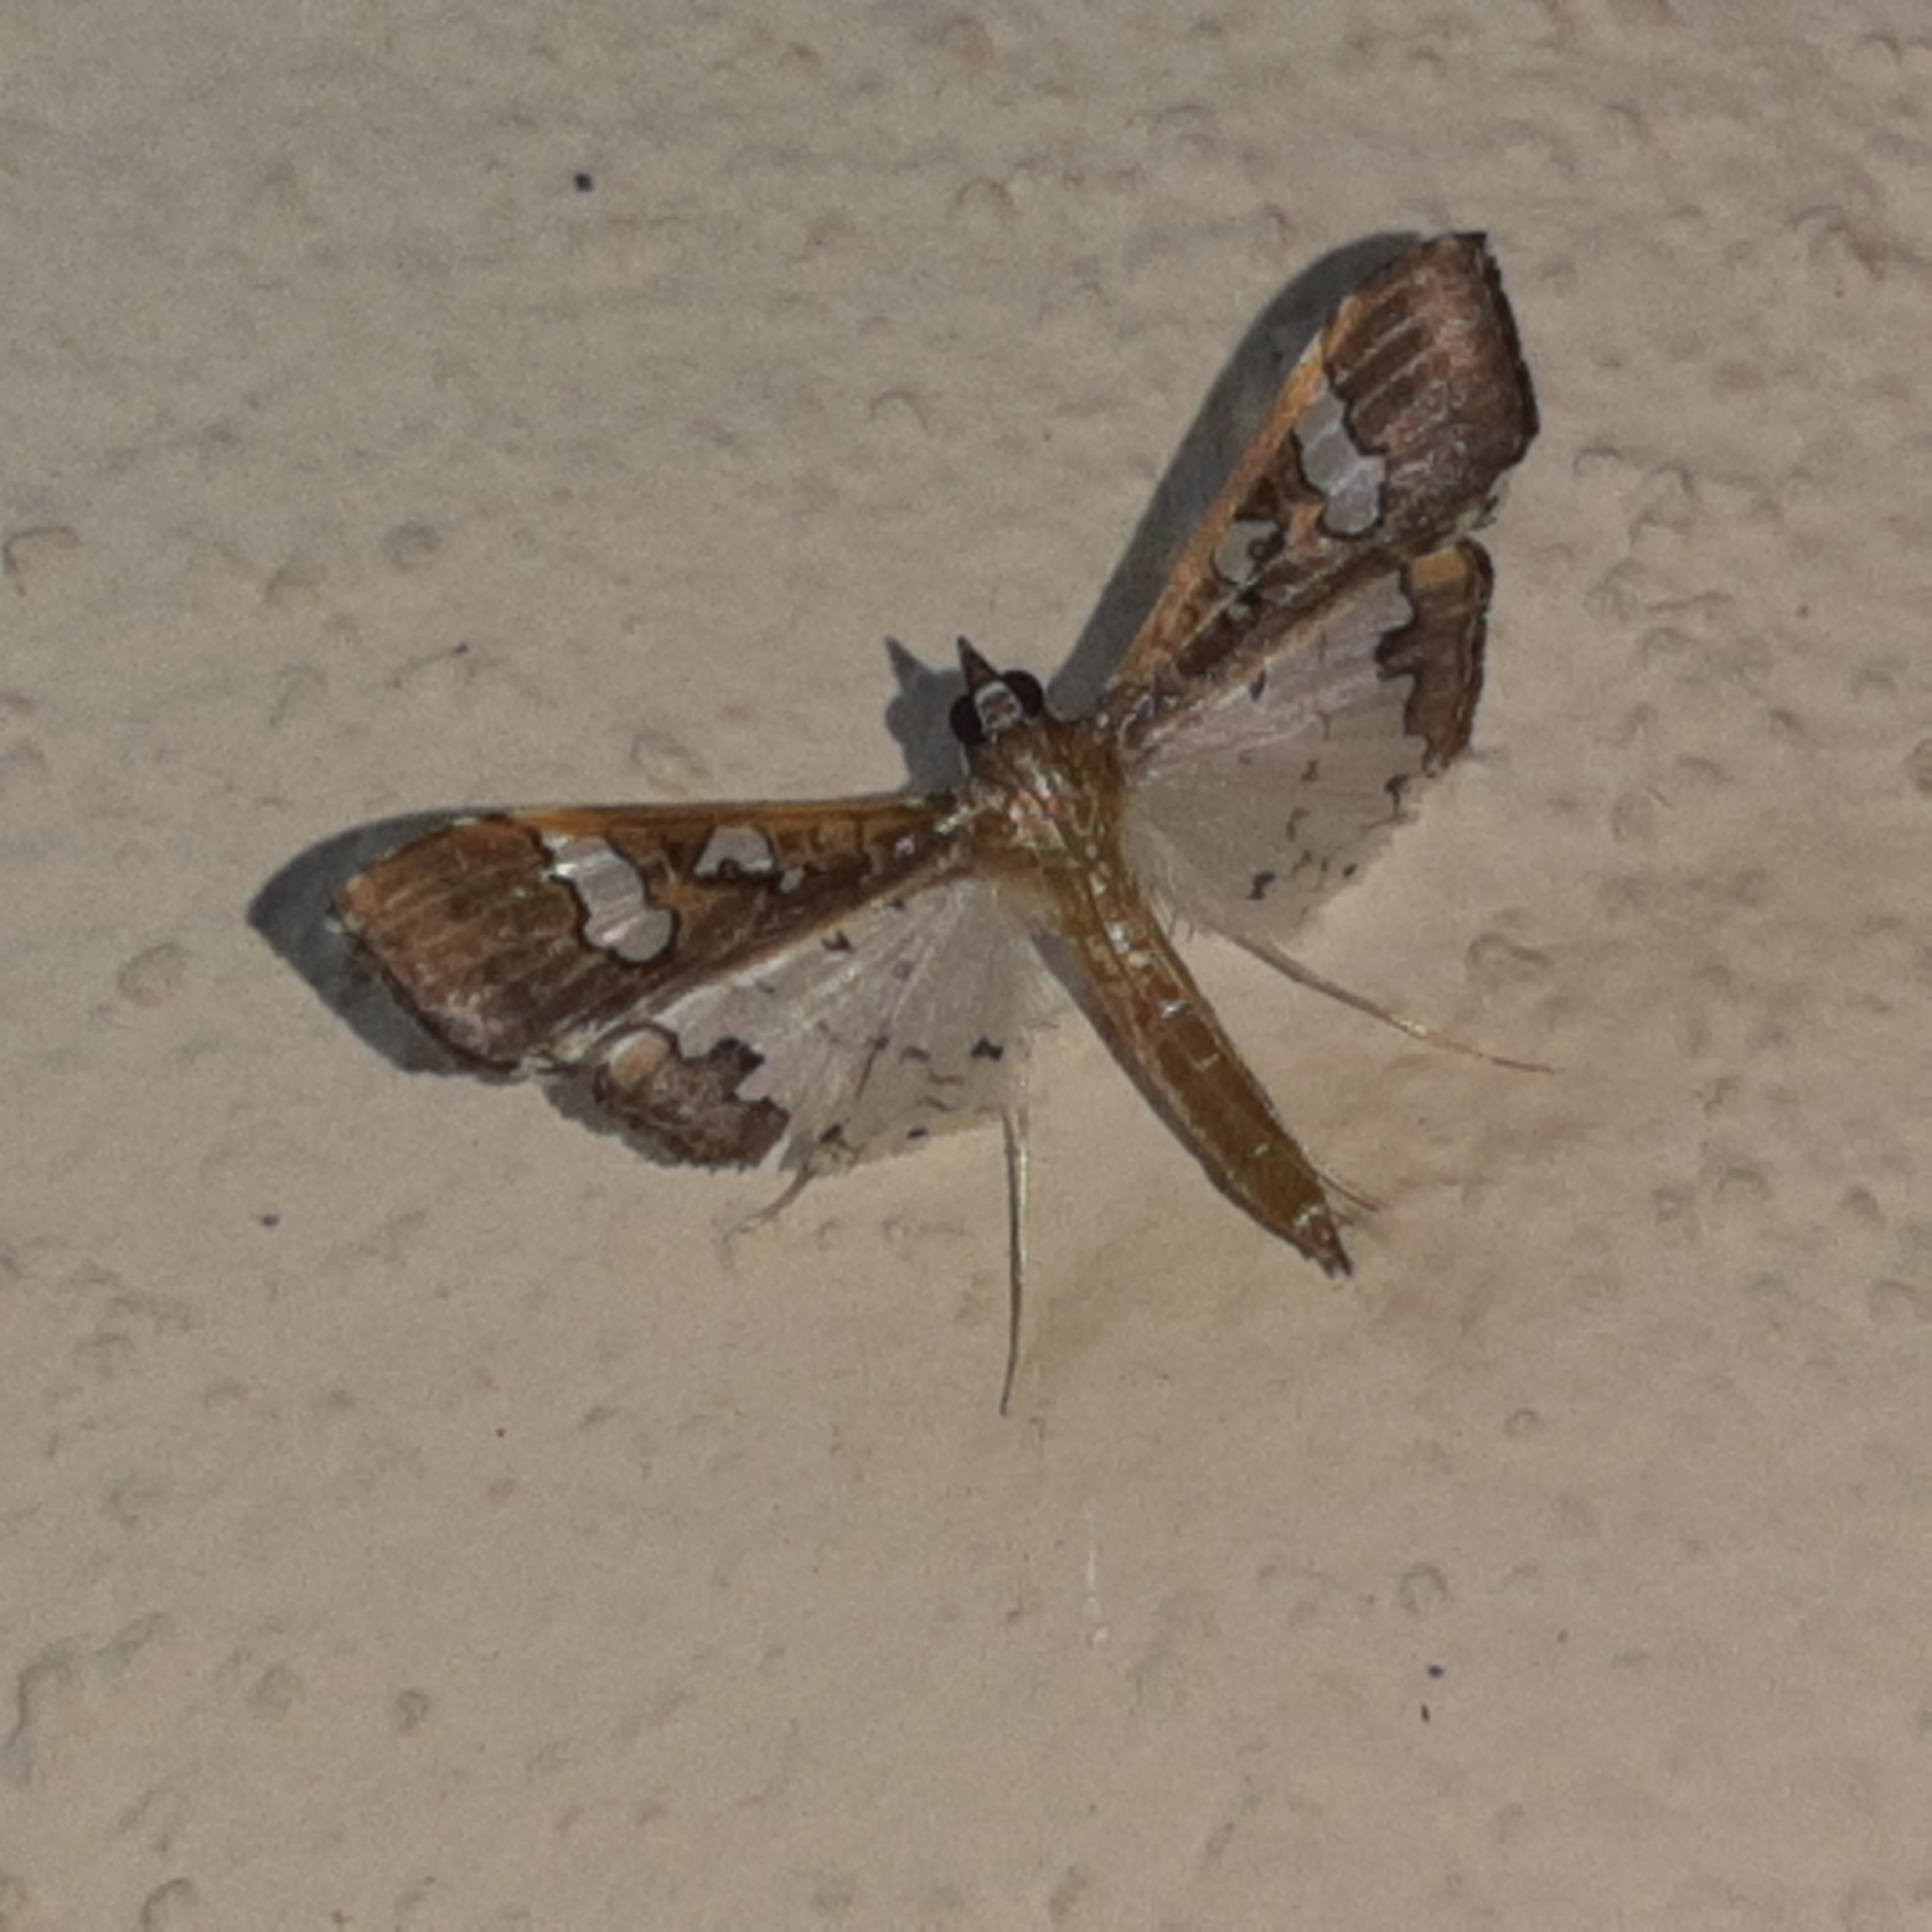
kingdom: Animalia
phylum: Arthropoda
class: Insecta
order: Lepidoptera
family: Crambidae
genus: Maruca
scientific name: Maruca vitrata
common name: Maruca pod borer
